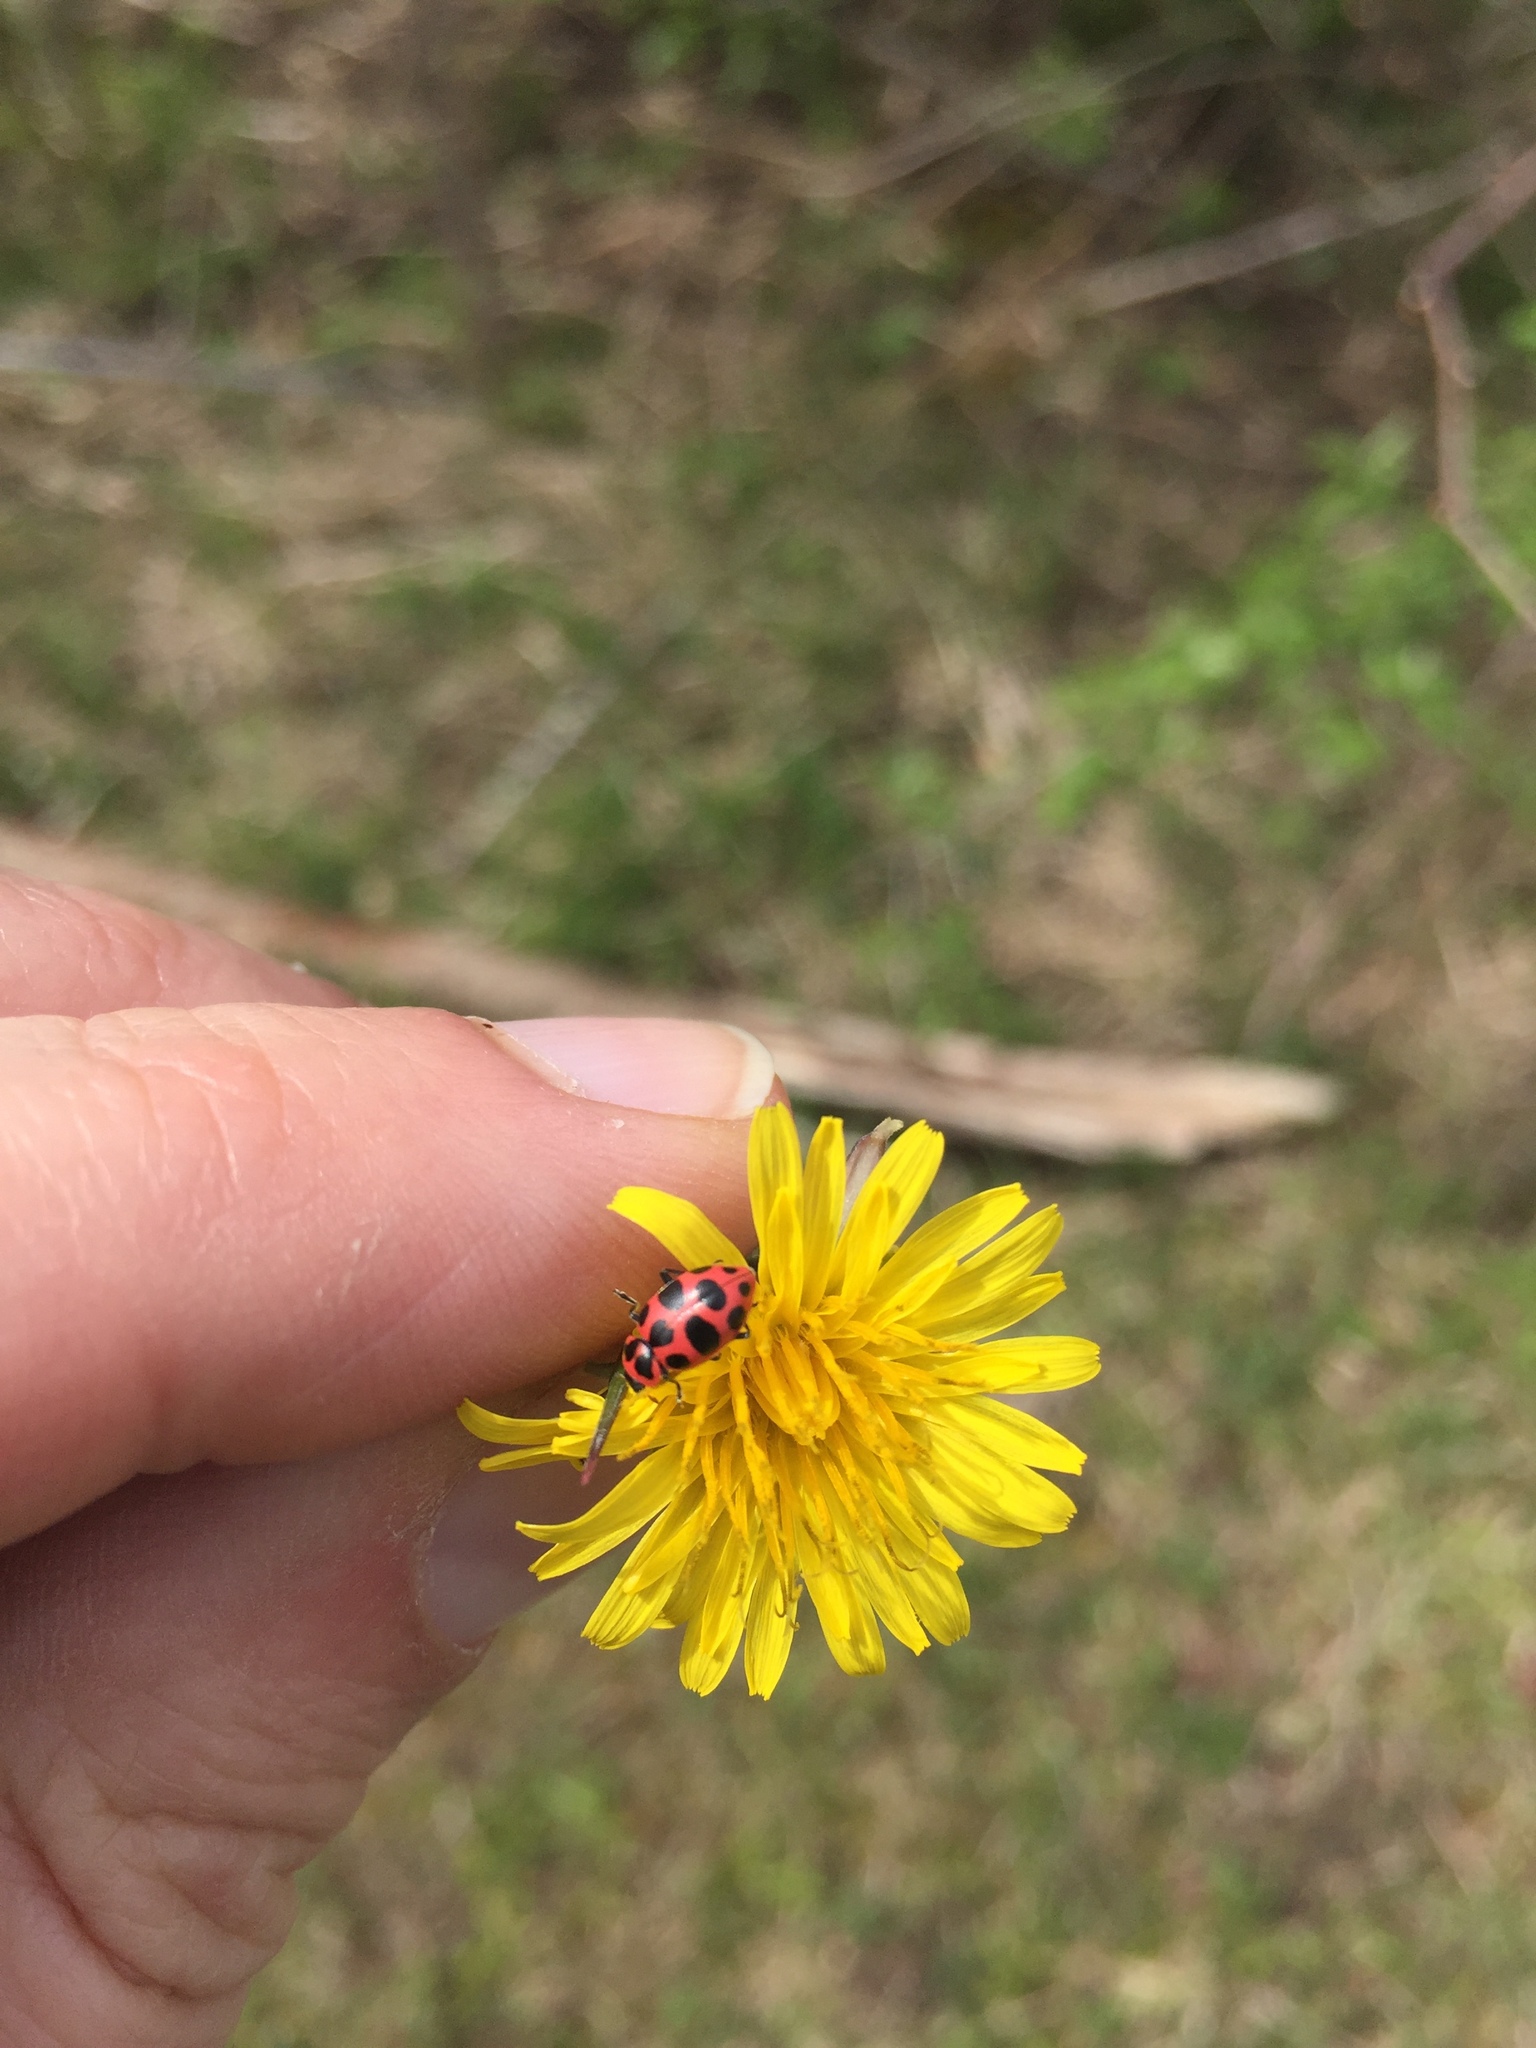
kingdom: Animalia
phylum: Arthropoda
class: Insecta
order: Coleoptera
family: Coccinellidae
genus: Coleomegilla
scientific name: Coleomegilla maculata
